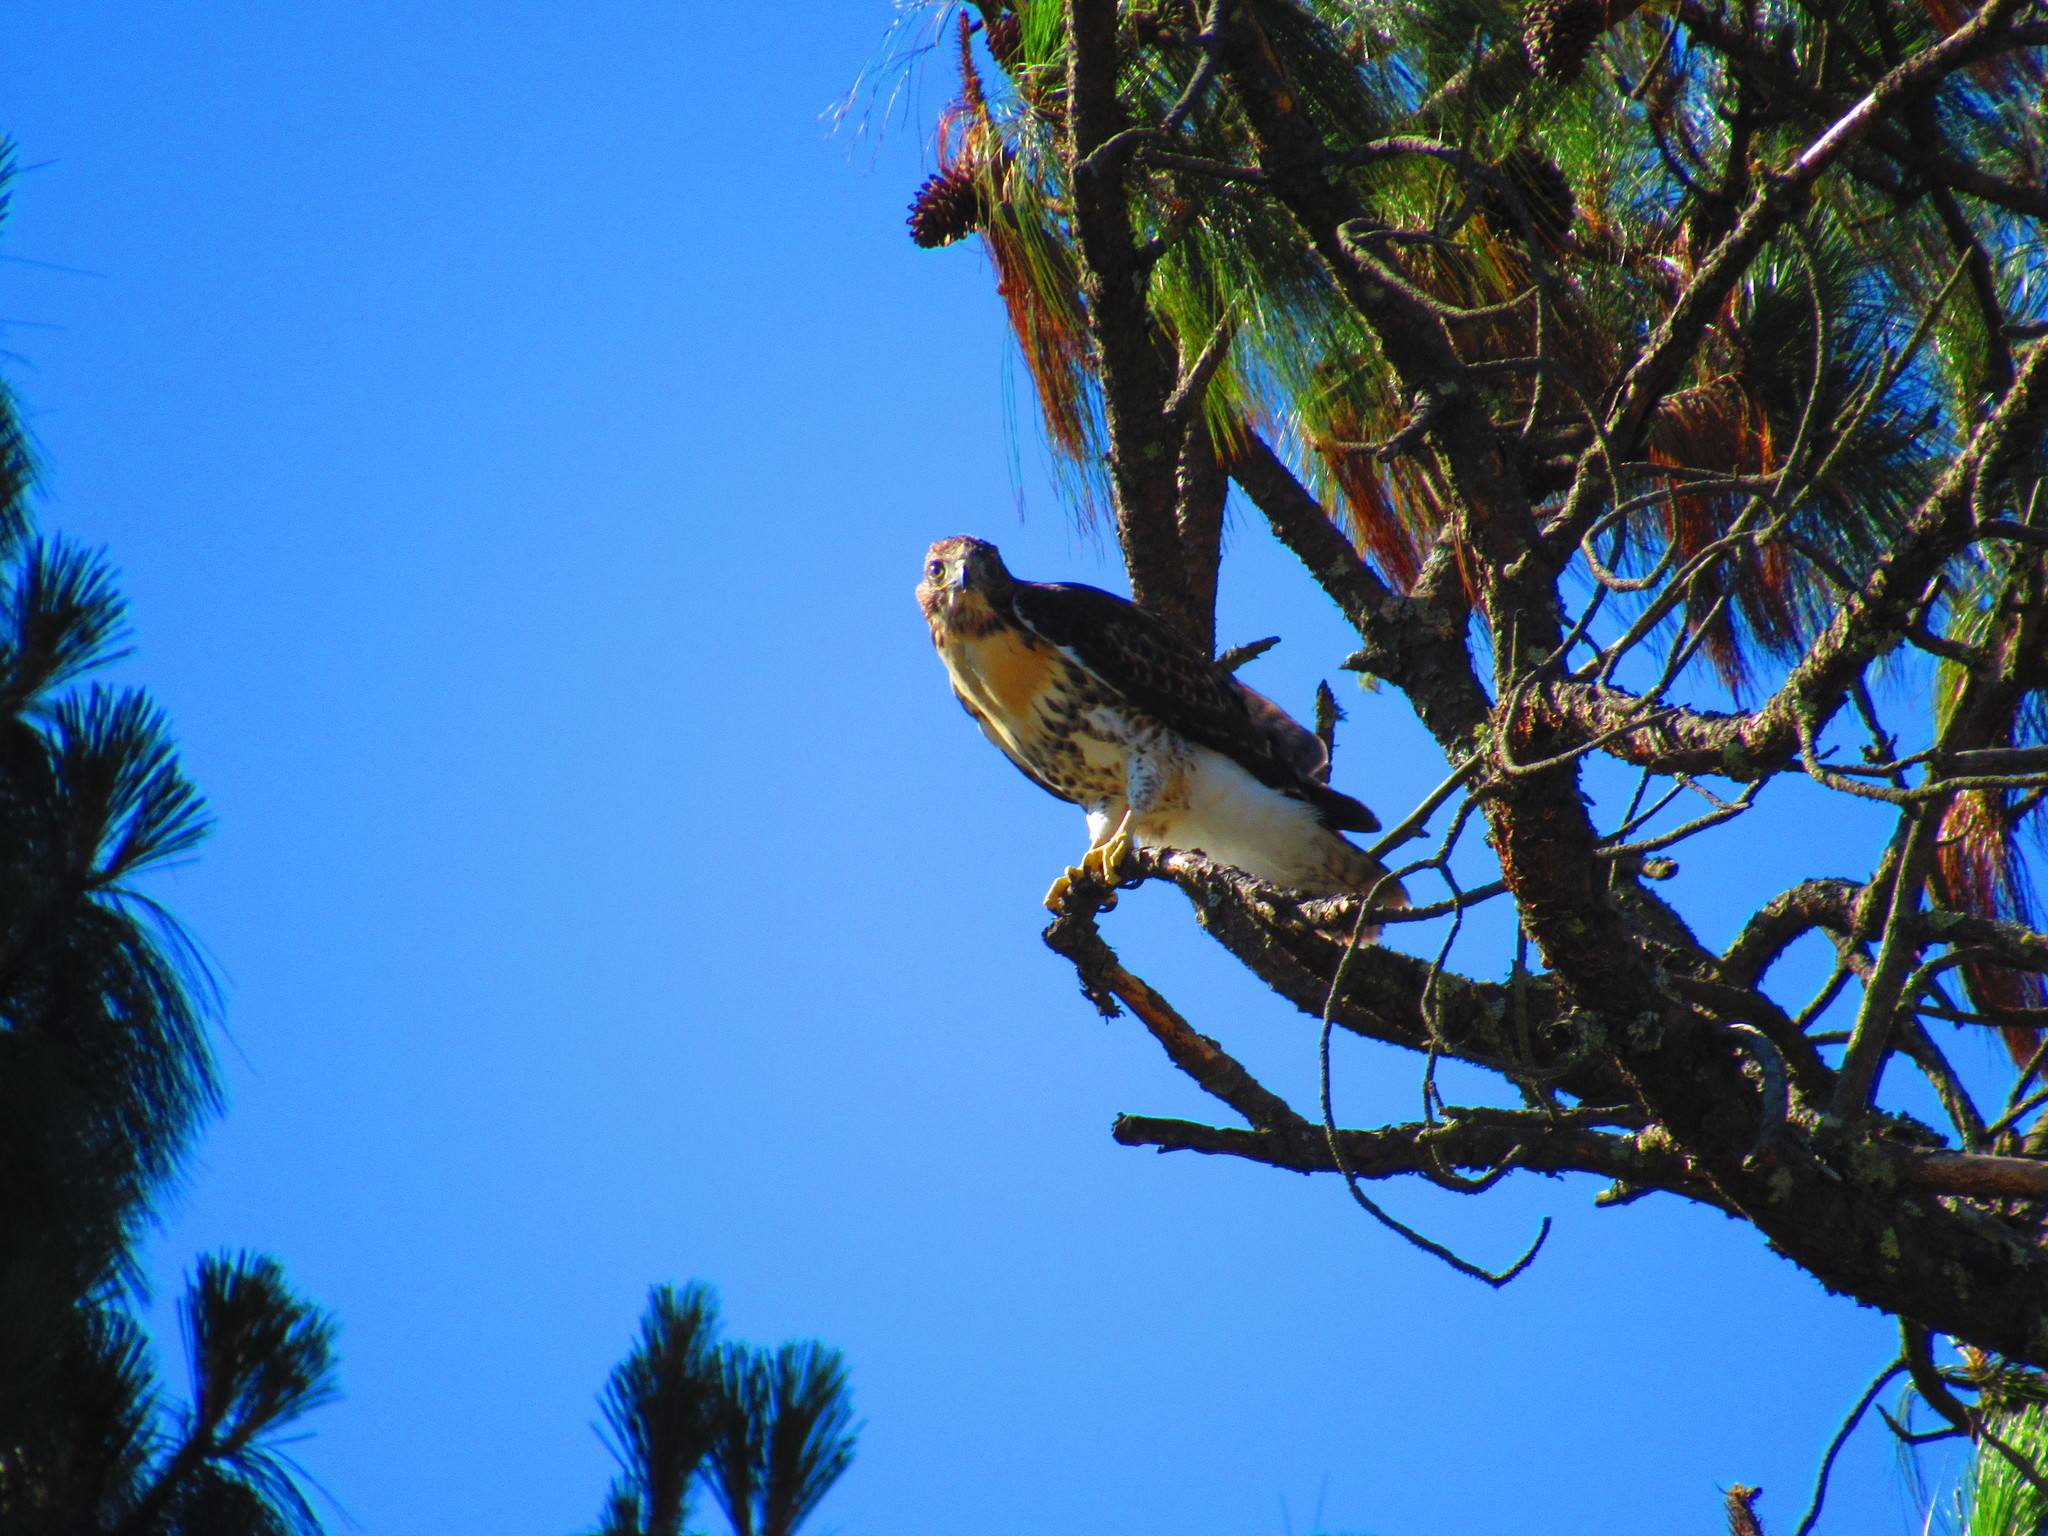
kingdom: Animalia
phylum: Chordata
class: Aves
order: Accipitriformes
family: Accipitridae
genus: Buteo
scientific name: Buteo jamaicensis
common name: Red-tailed hawk
